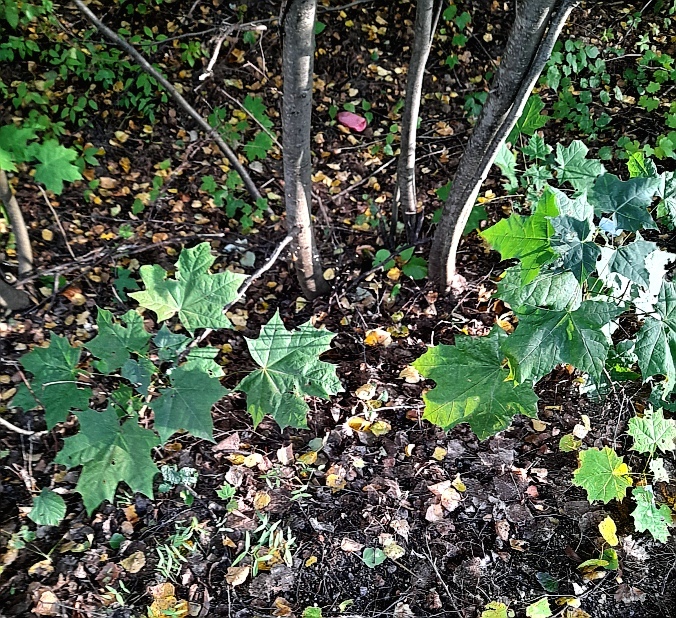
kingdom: Plantae
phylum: Tracheophyta
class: Magnoliopsida
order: Sapindales
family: Sapindaceae
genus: Acer
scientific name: Acer platanoides
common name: Norway maple
